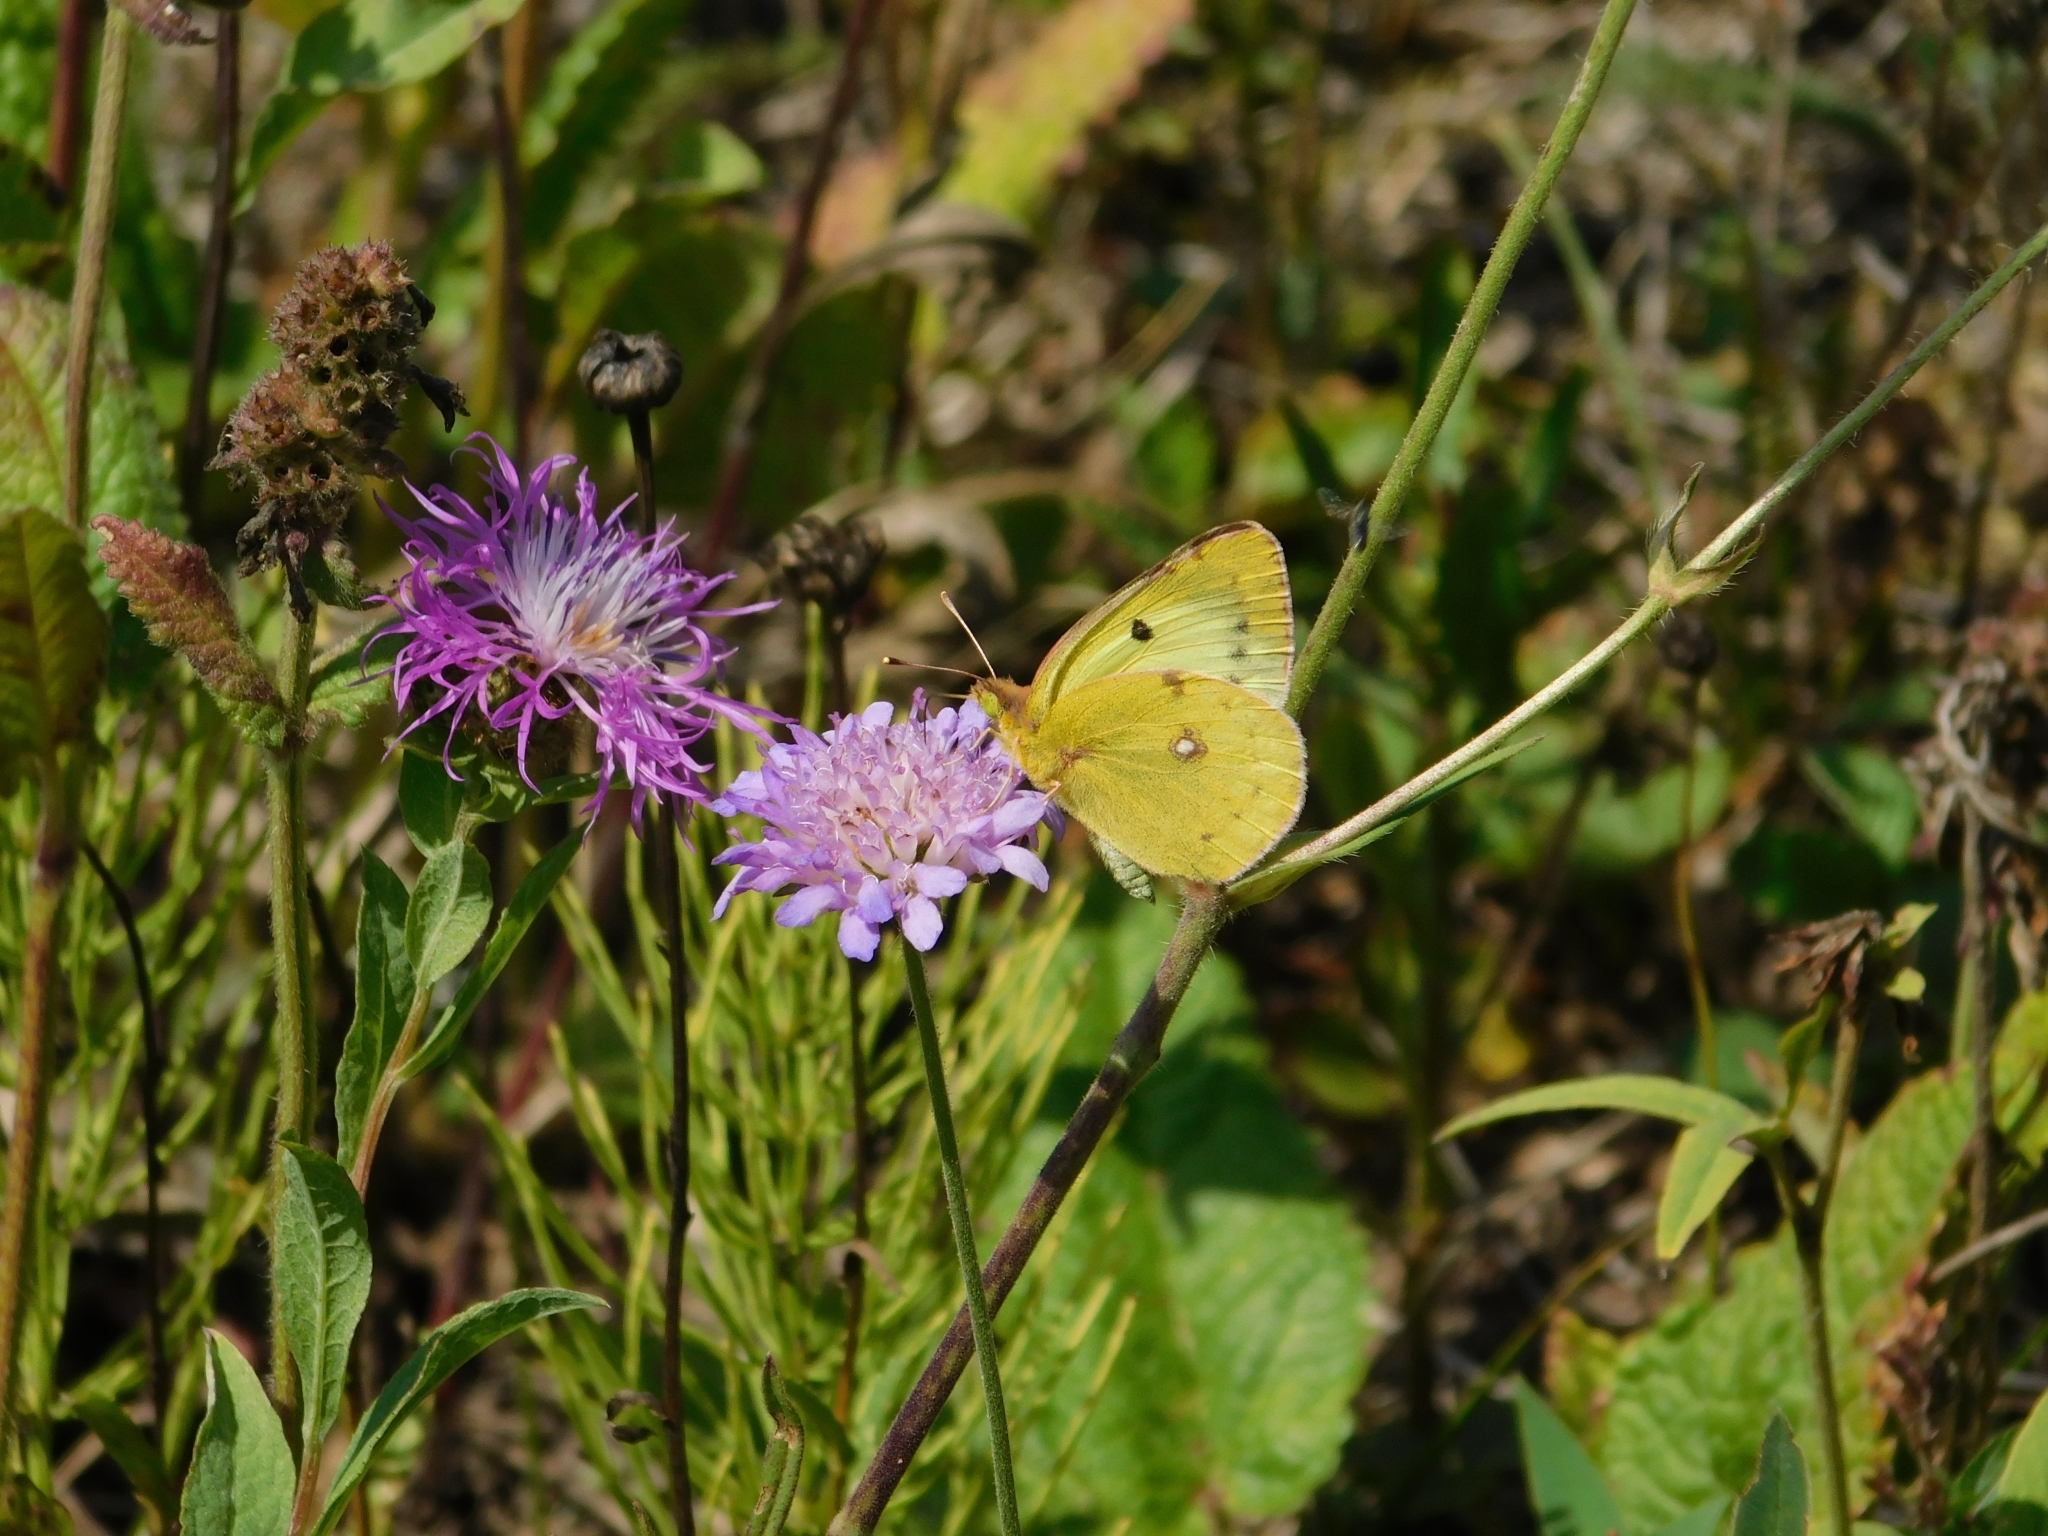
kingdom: Animalia
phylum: Arthropoda
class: Insecta
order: Lepidoptera
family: Pieridae
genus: Colias
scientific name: Colias hyale
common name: Pale clouded yellow
